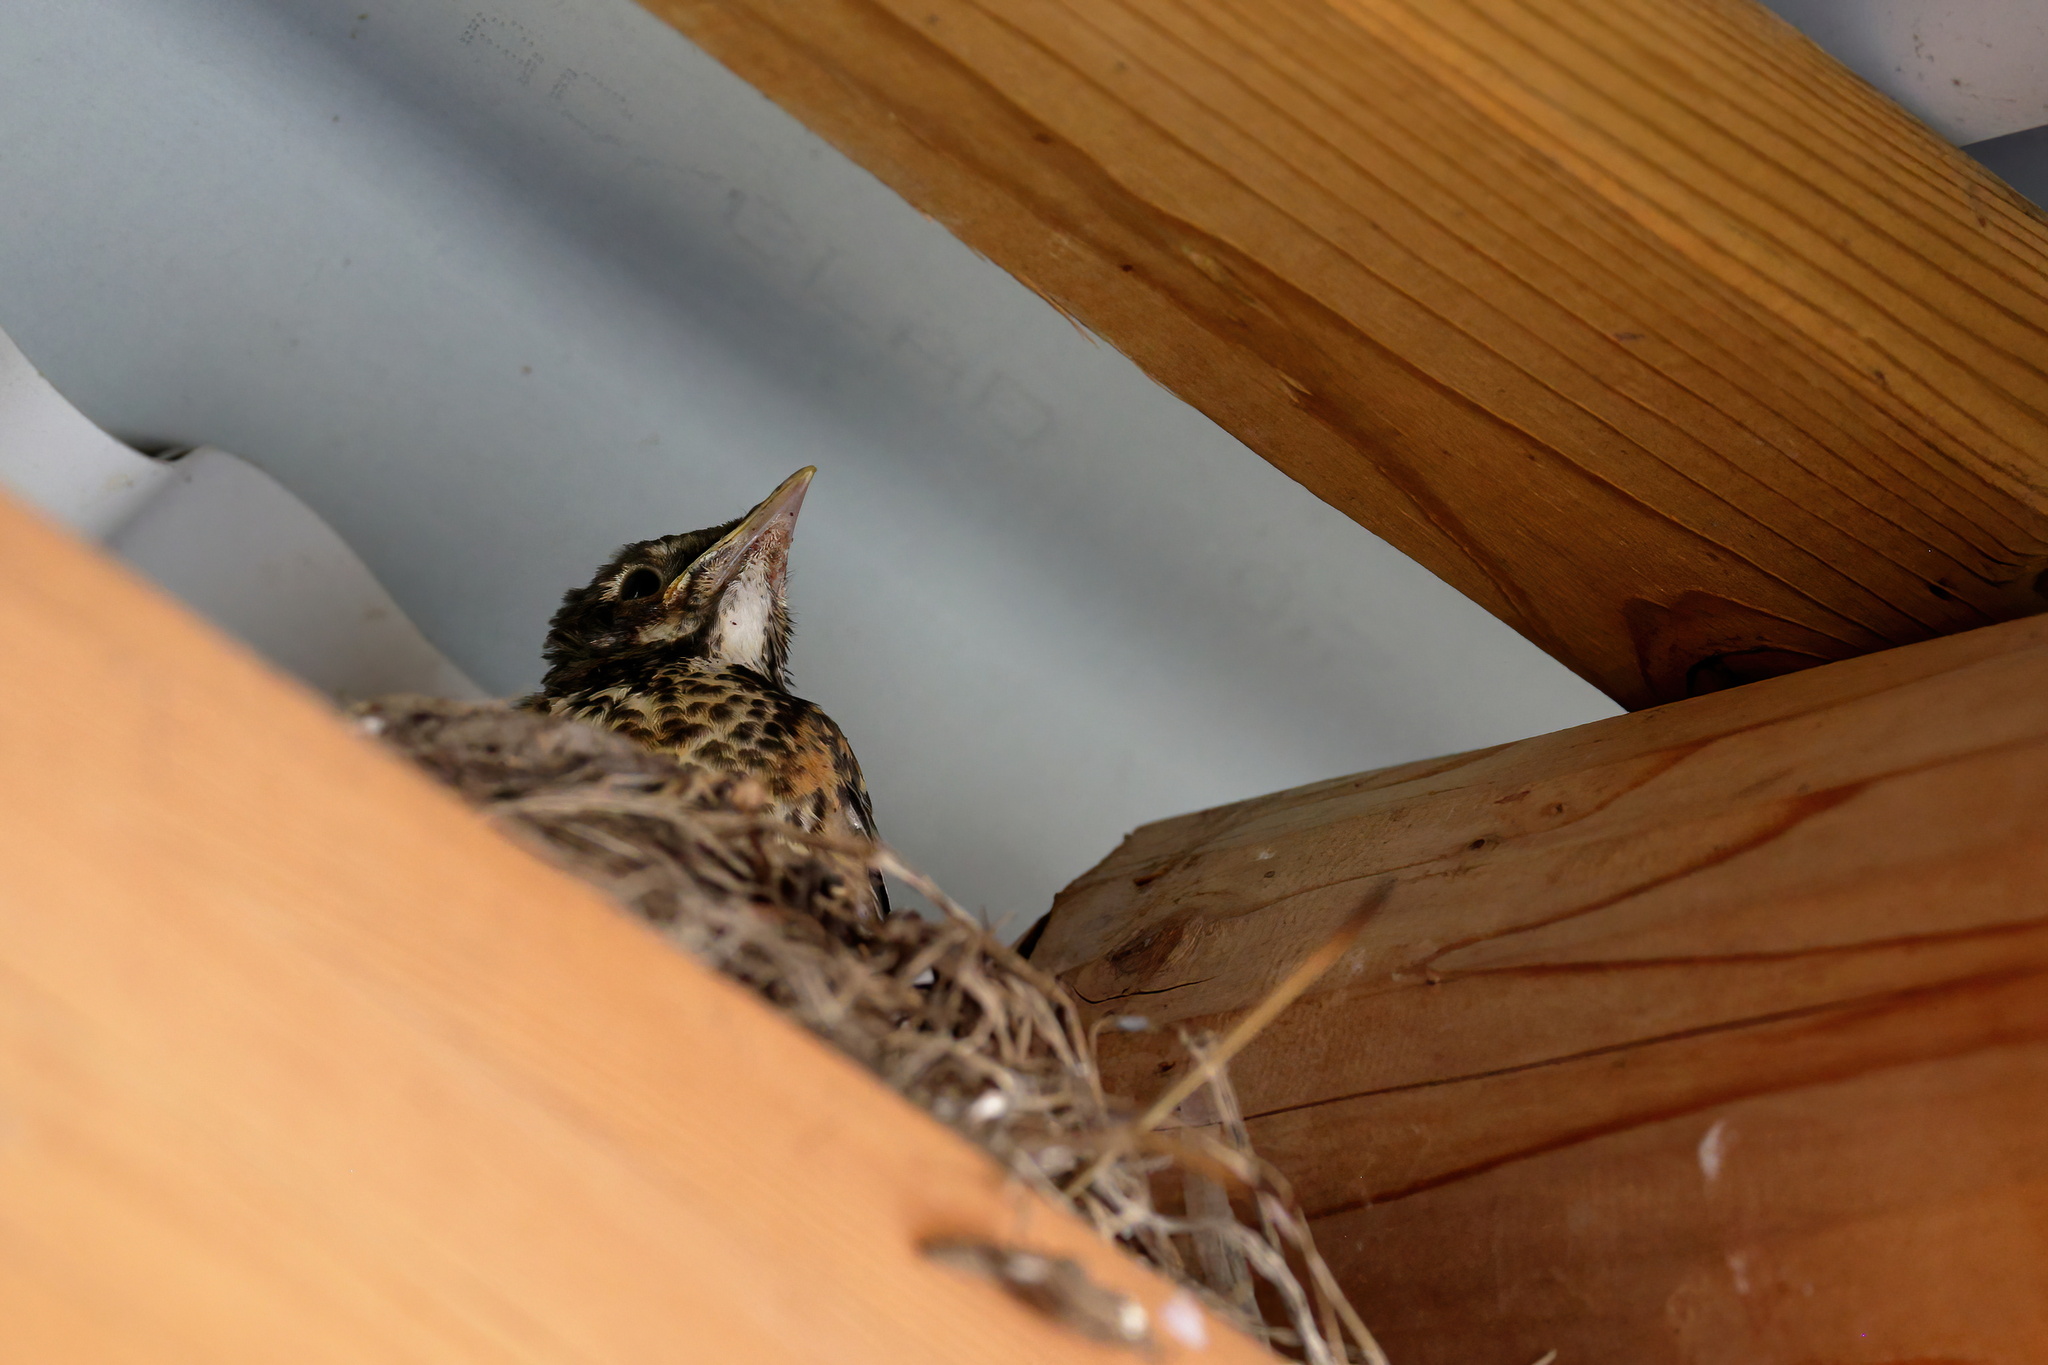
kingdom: Animalia
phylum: Chordata
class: Aves
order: Passeriformes
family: Turdidae
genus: Turdus
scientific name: Turdus migratorius
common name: American robin
